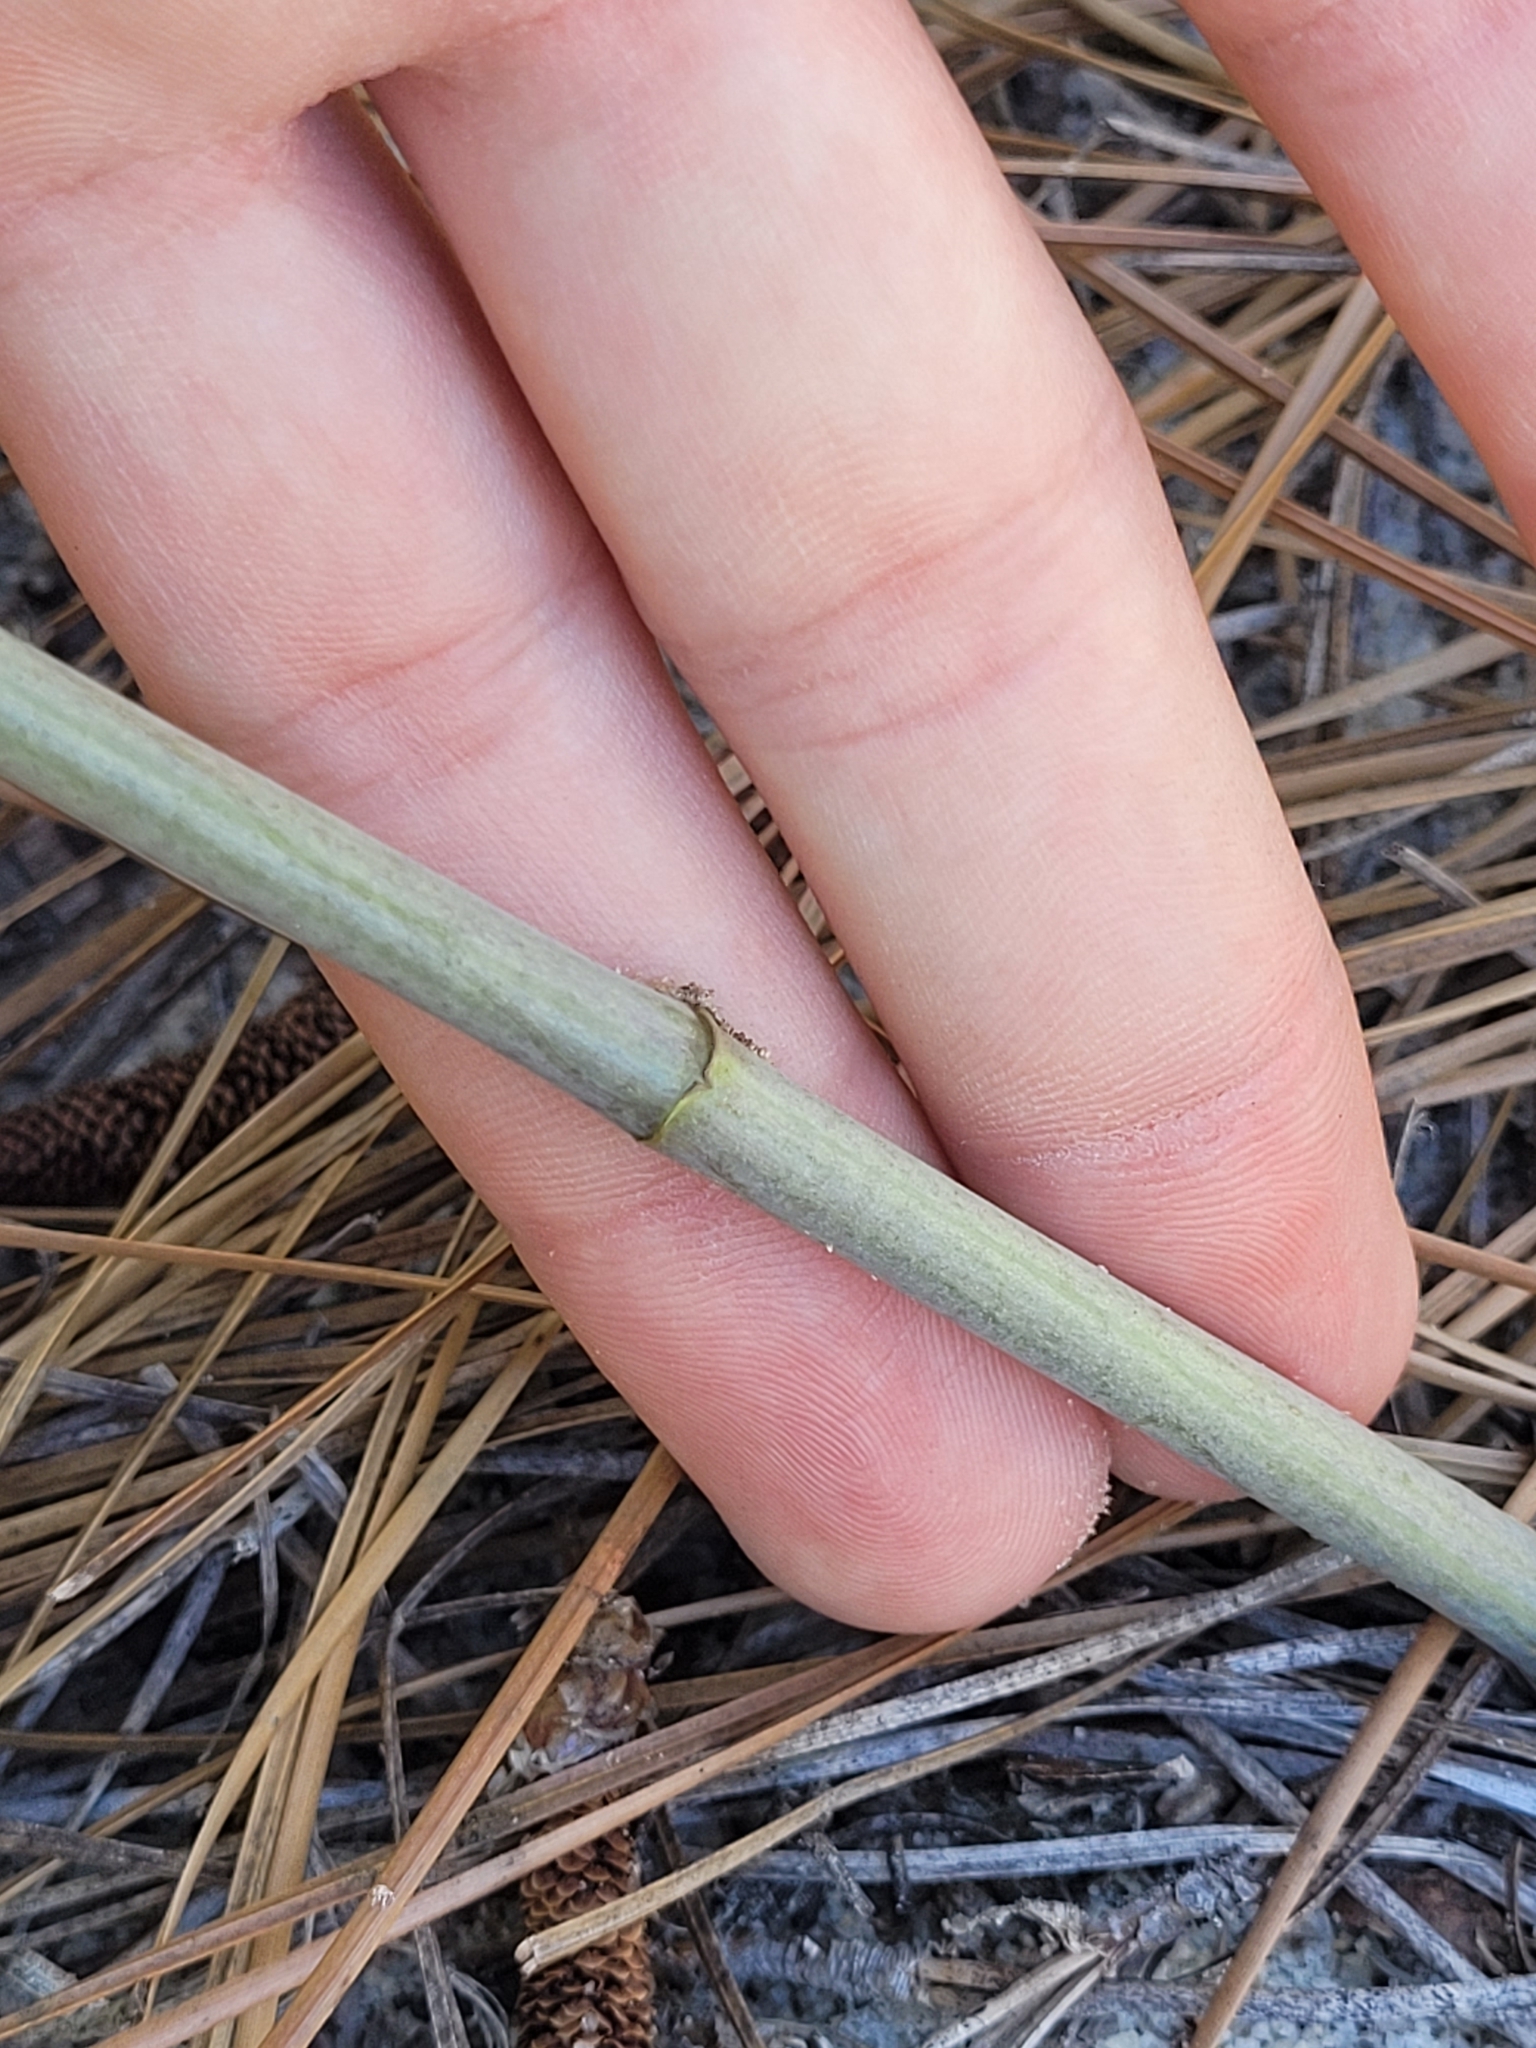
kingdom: Plantae
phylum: Tracheophyta
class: Magnoliopsida
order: Fabales
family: Fabaceae
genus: Baptisia
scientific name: Baptisia tinctoria
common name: Wild indigo
